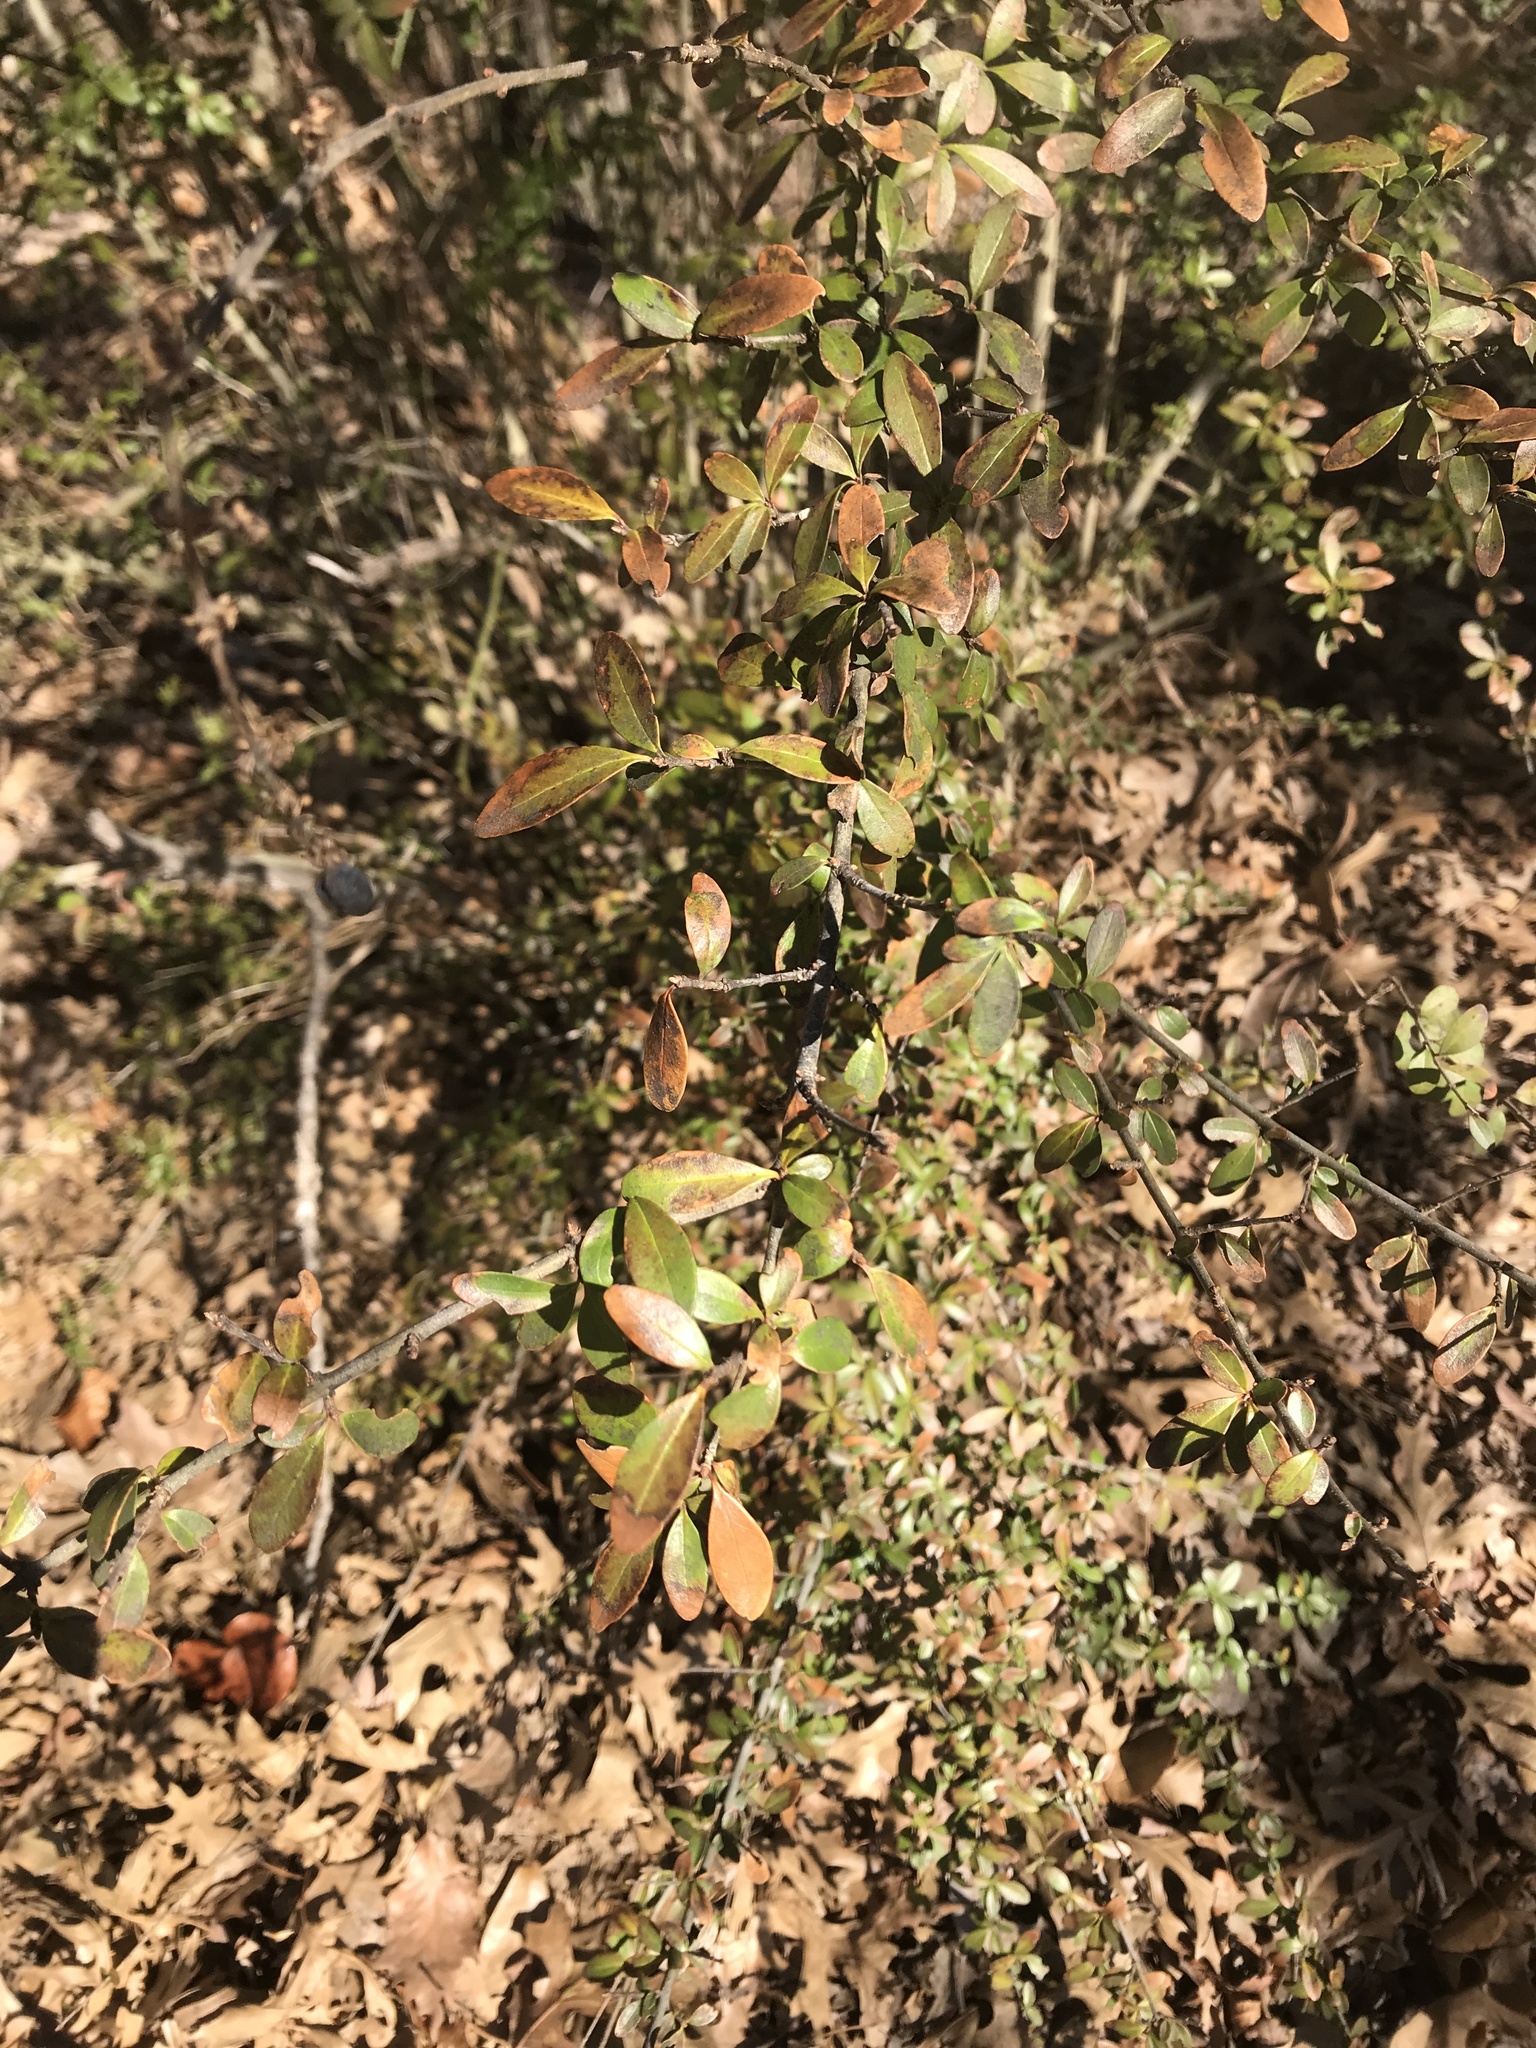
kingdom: Plantae
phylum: Tracheophyta
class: Magnoliopsida
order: Lamiales
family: Oleaceae
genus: Ligustrum
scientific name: Ligustrum quihoui
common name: Waxyleaf privet
